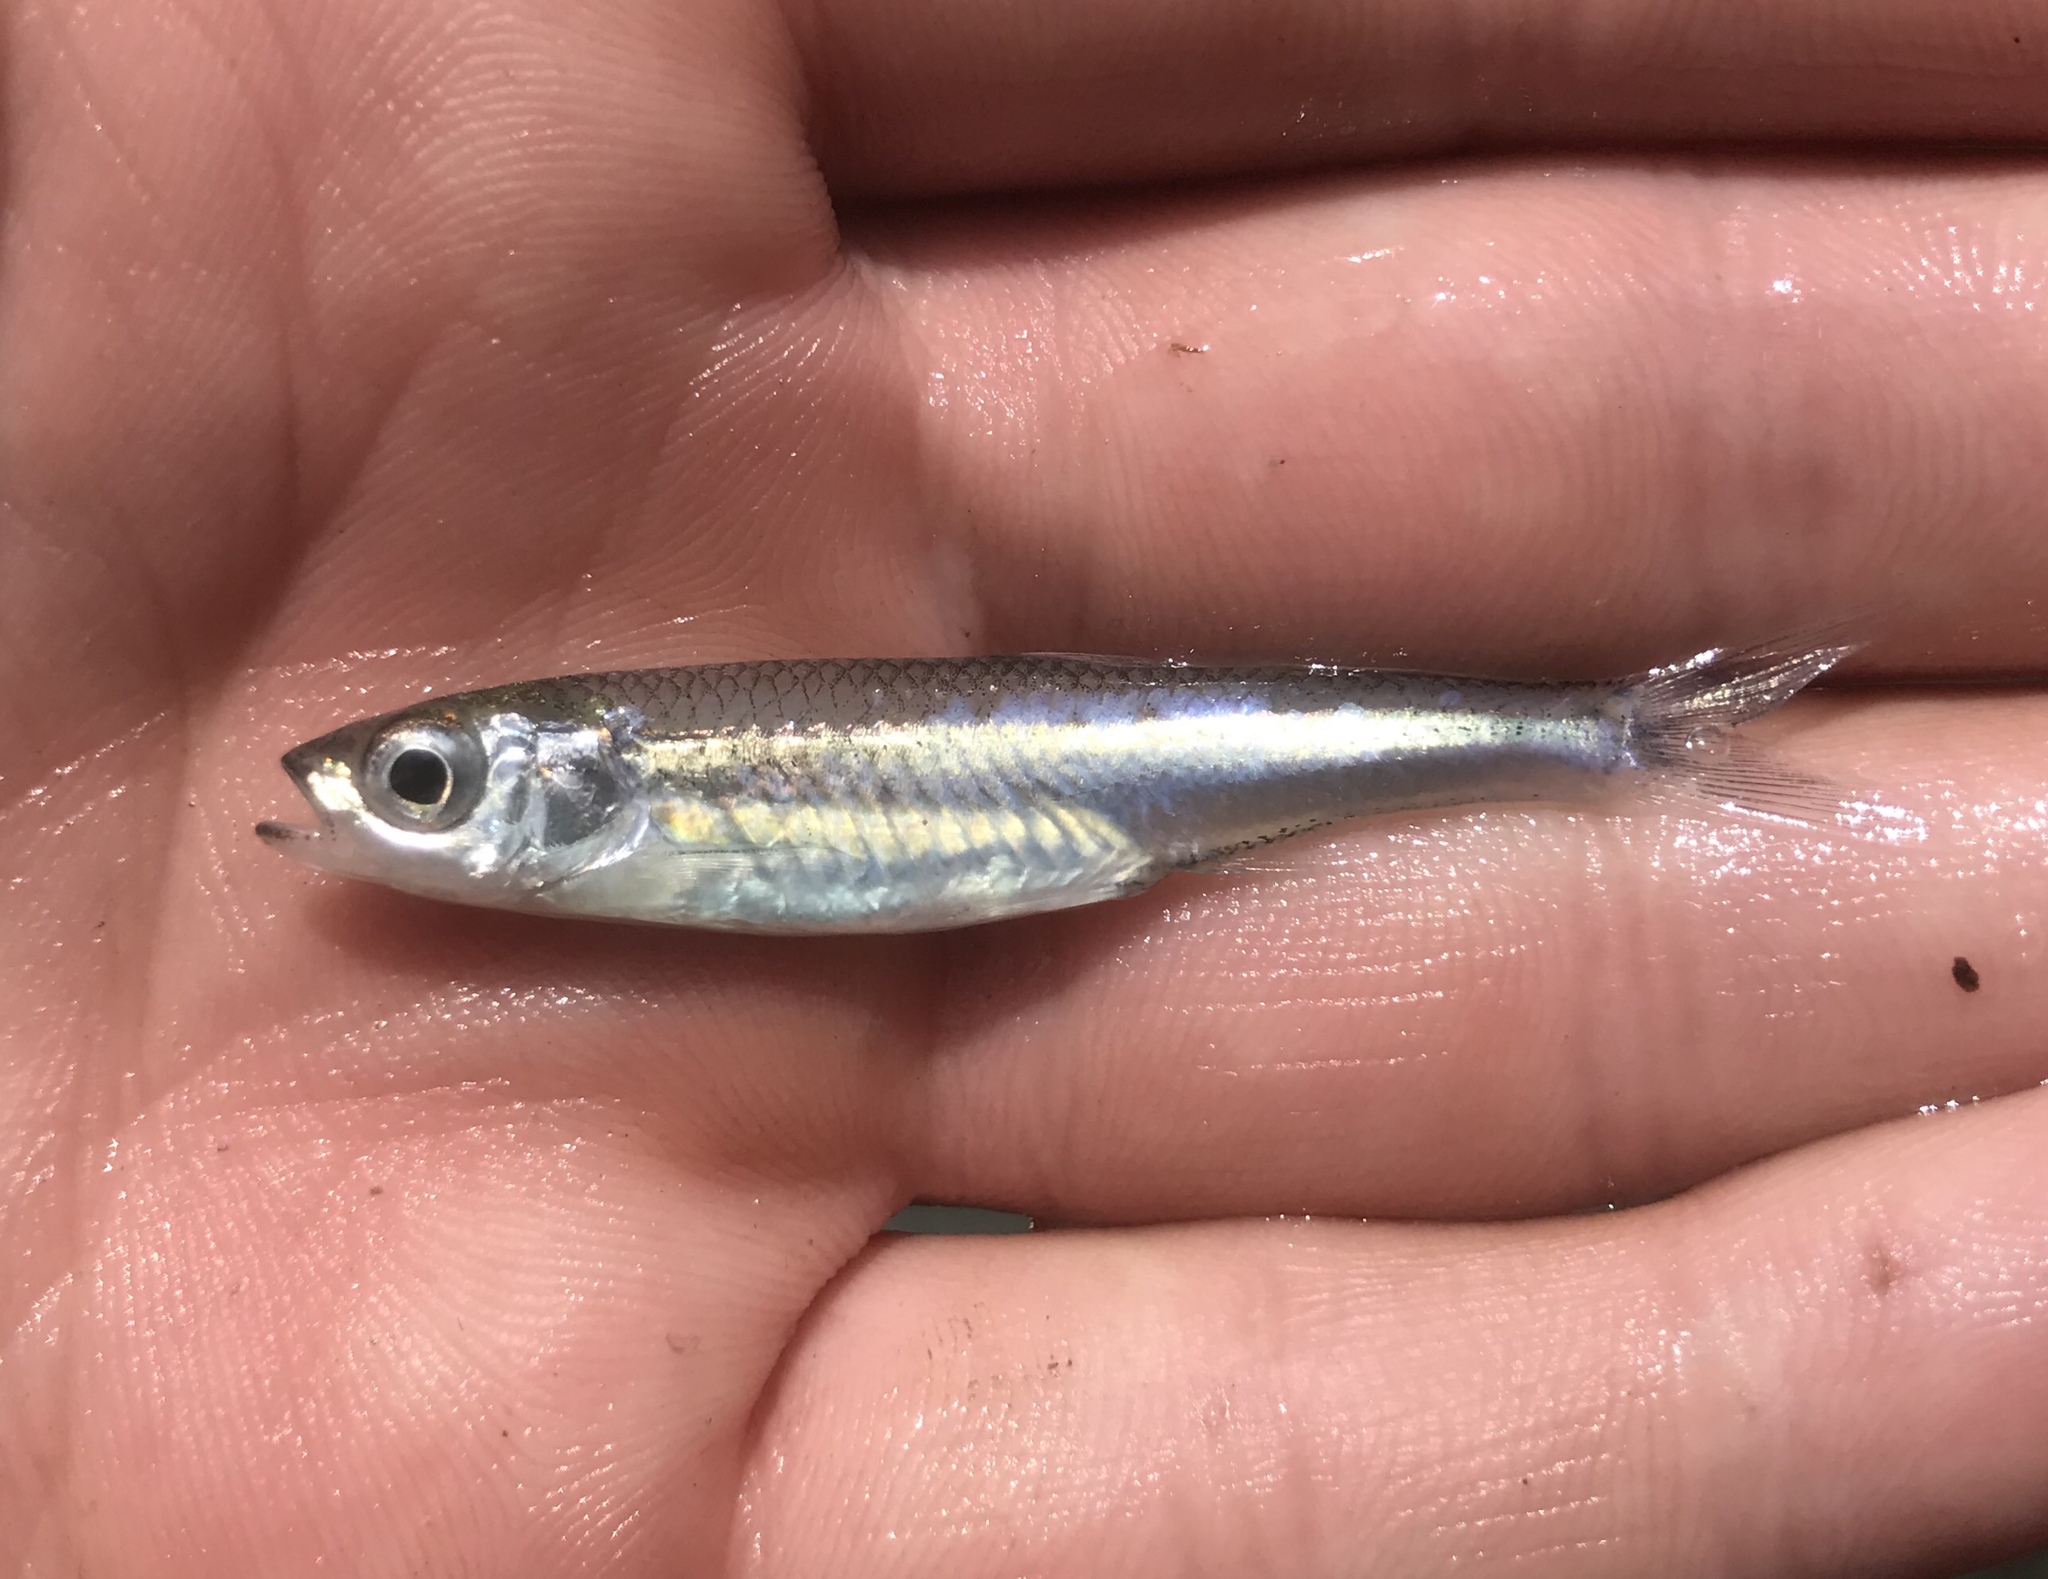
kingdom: Animalia
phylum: Chordata
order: Cypriniformes
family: Cyprinidae
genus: Notropis
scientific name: Notropis amabilis
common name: Texas shiner
